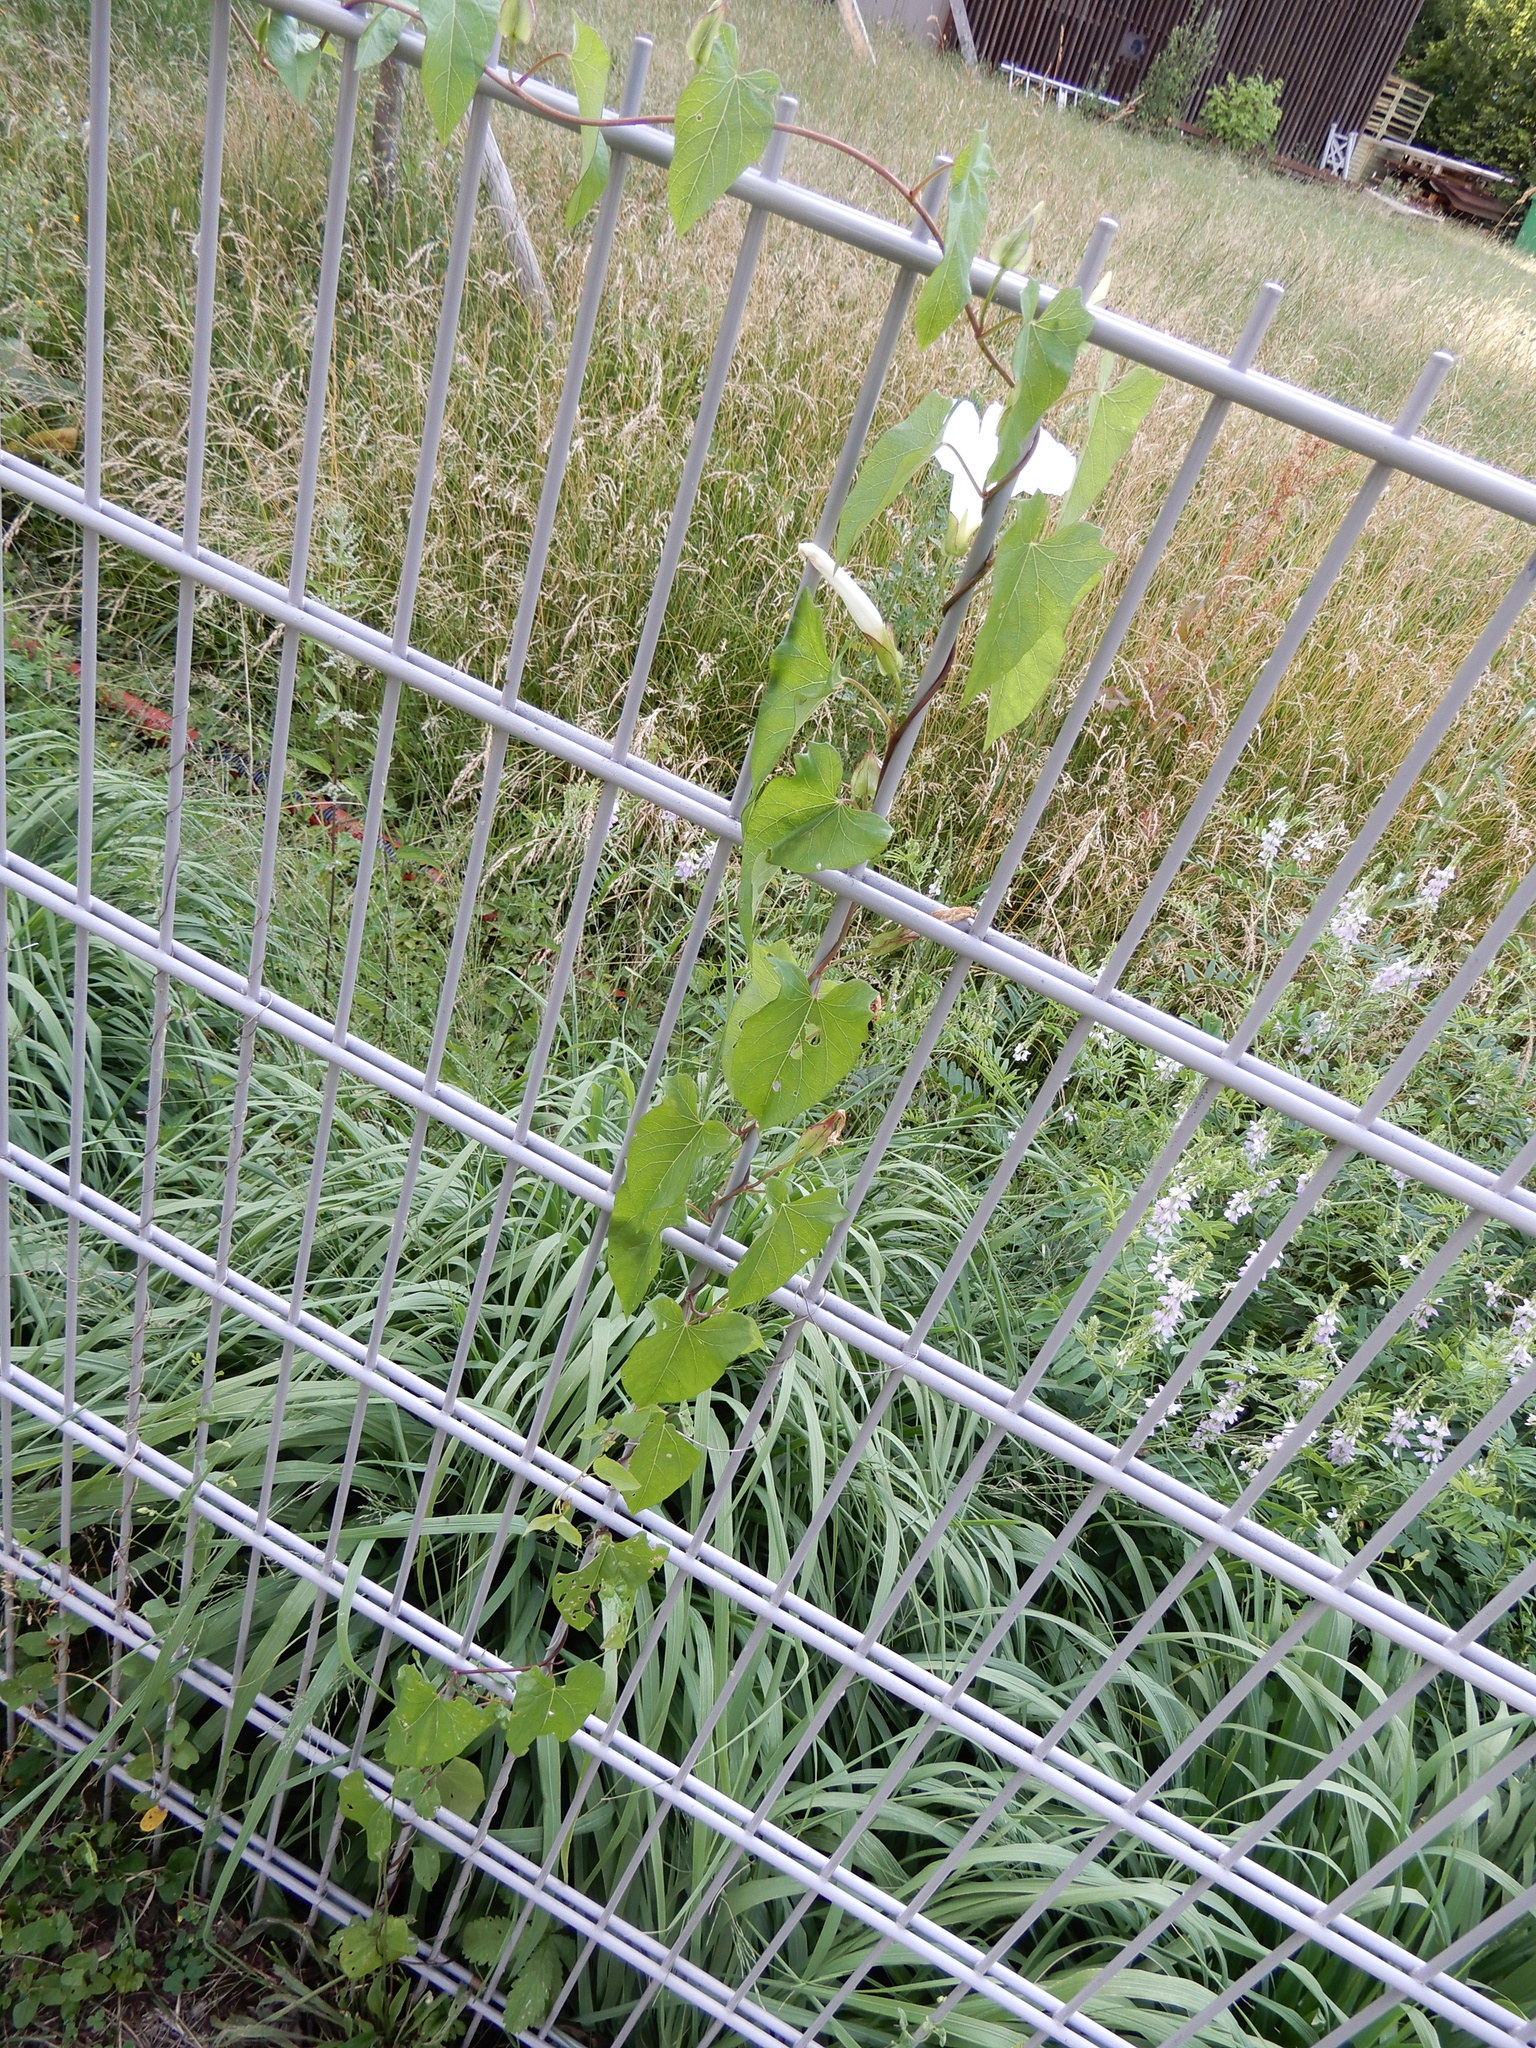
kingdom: Plantae
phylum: Tracheophyta
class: Magnoliopsida
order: Solanales
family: Convolvulaceae
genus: Calystegia
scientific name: Calystegia sepium
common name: Hedge bindweed
